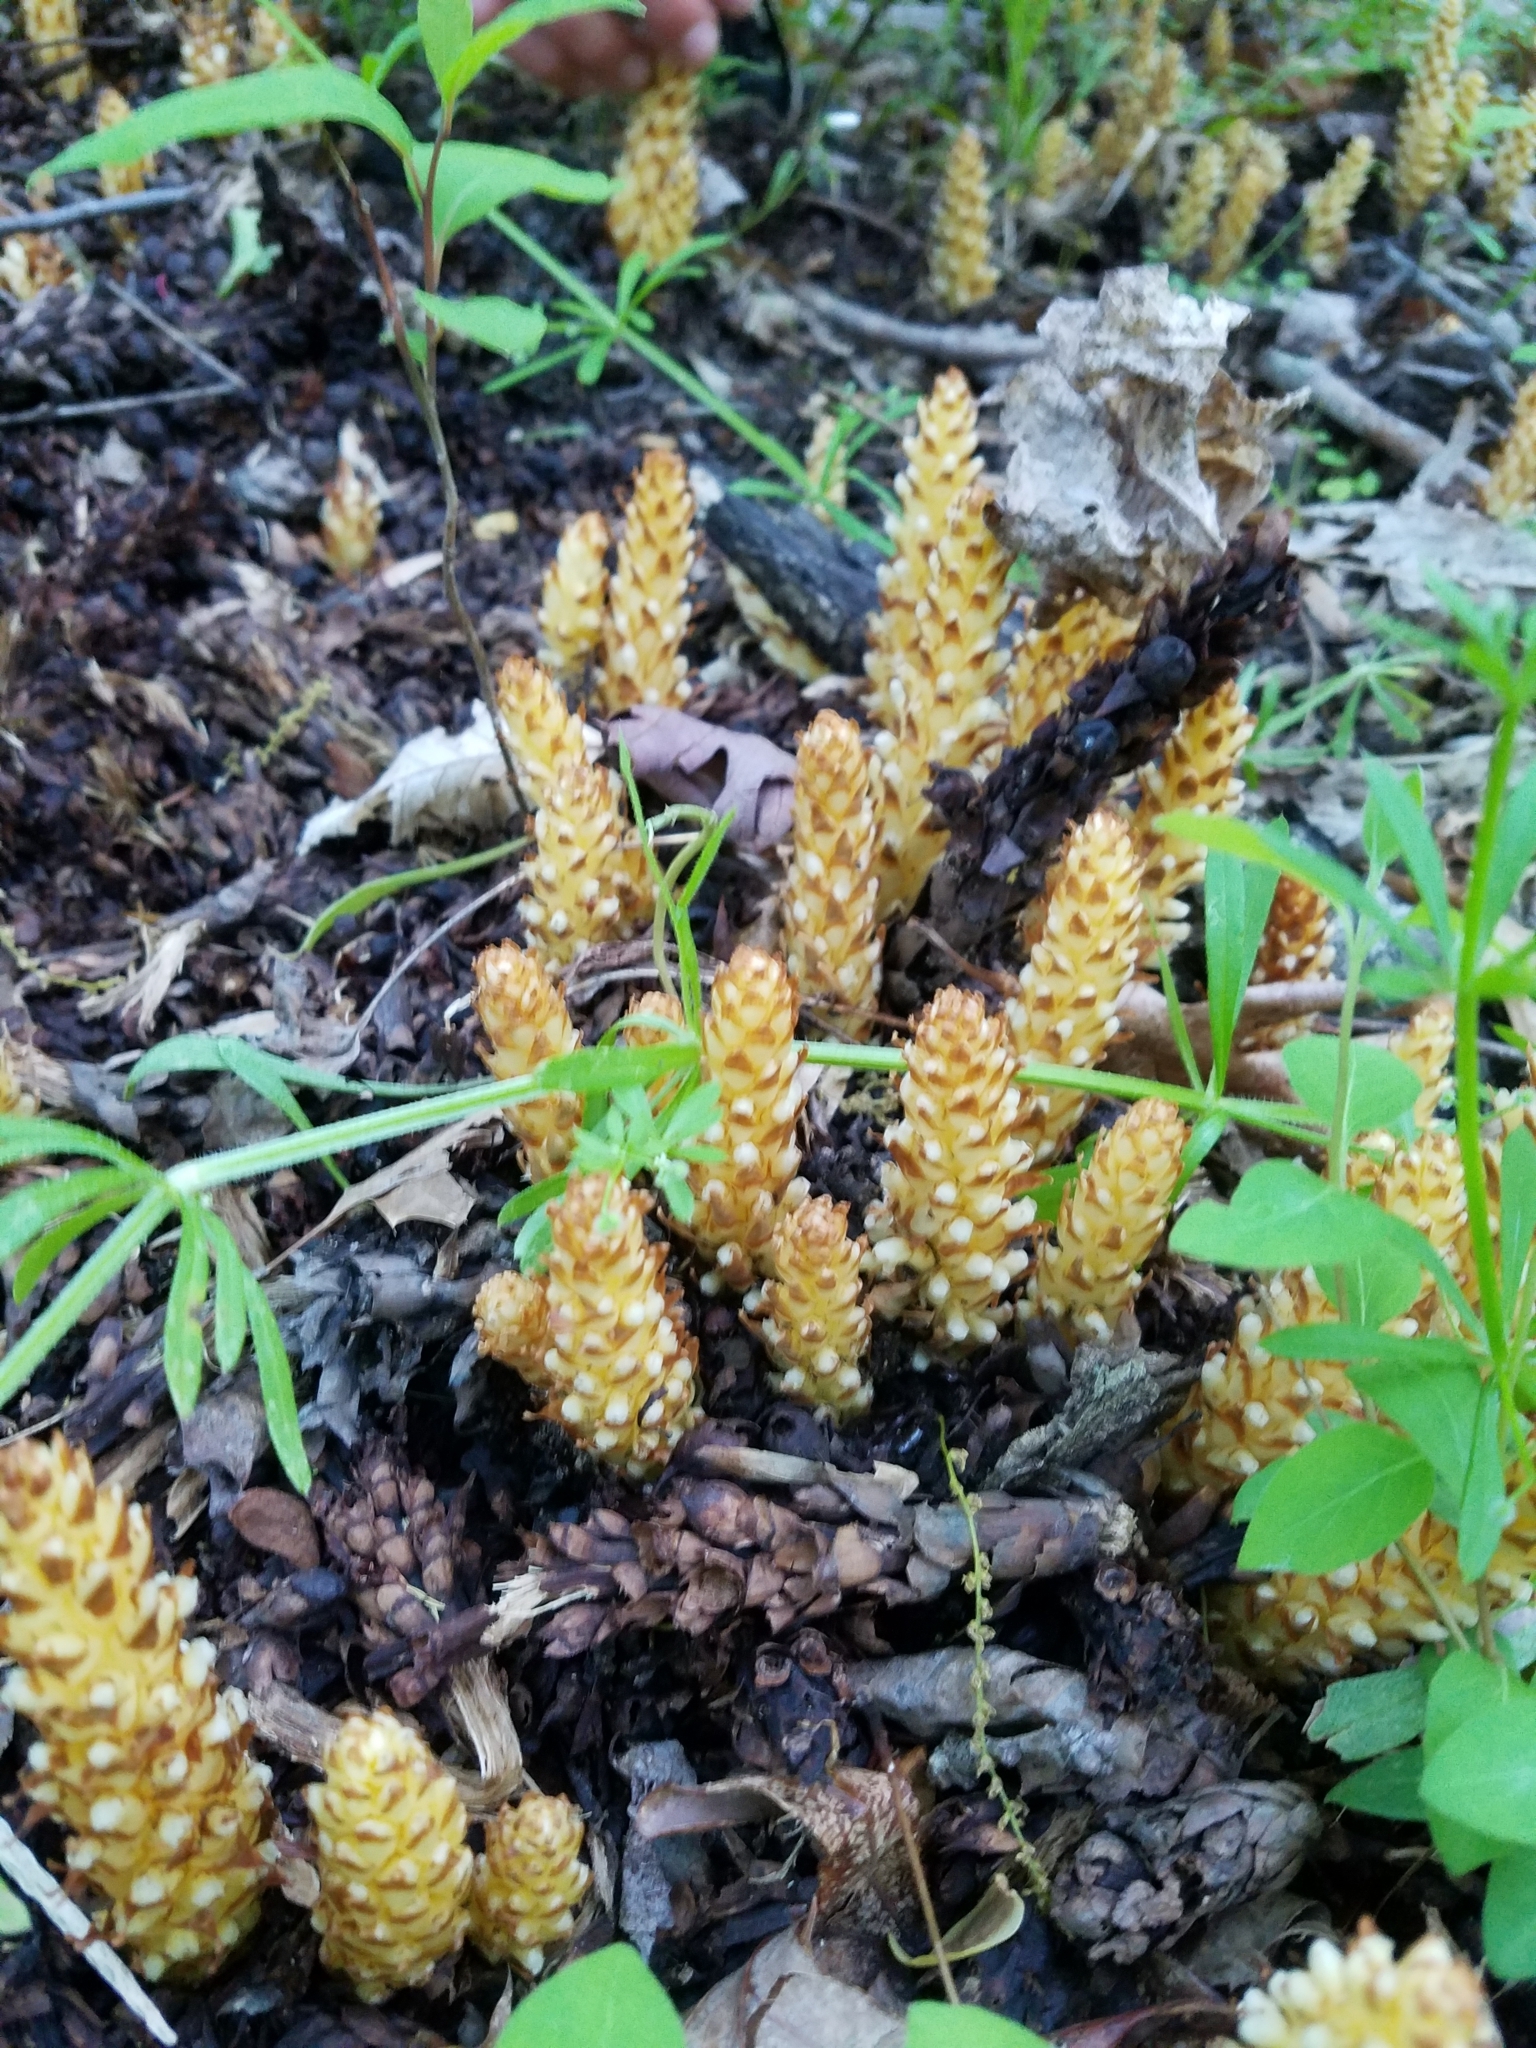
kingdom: Plantae
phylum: Tracheophyta
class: Magnoliopsida
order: Lamiales
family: Orobanchaceae
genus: Conopholis
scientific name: Conopholis americana
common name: American cancer-root
